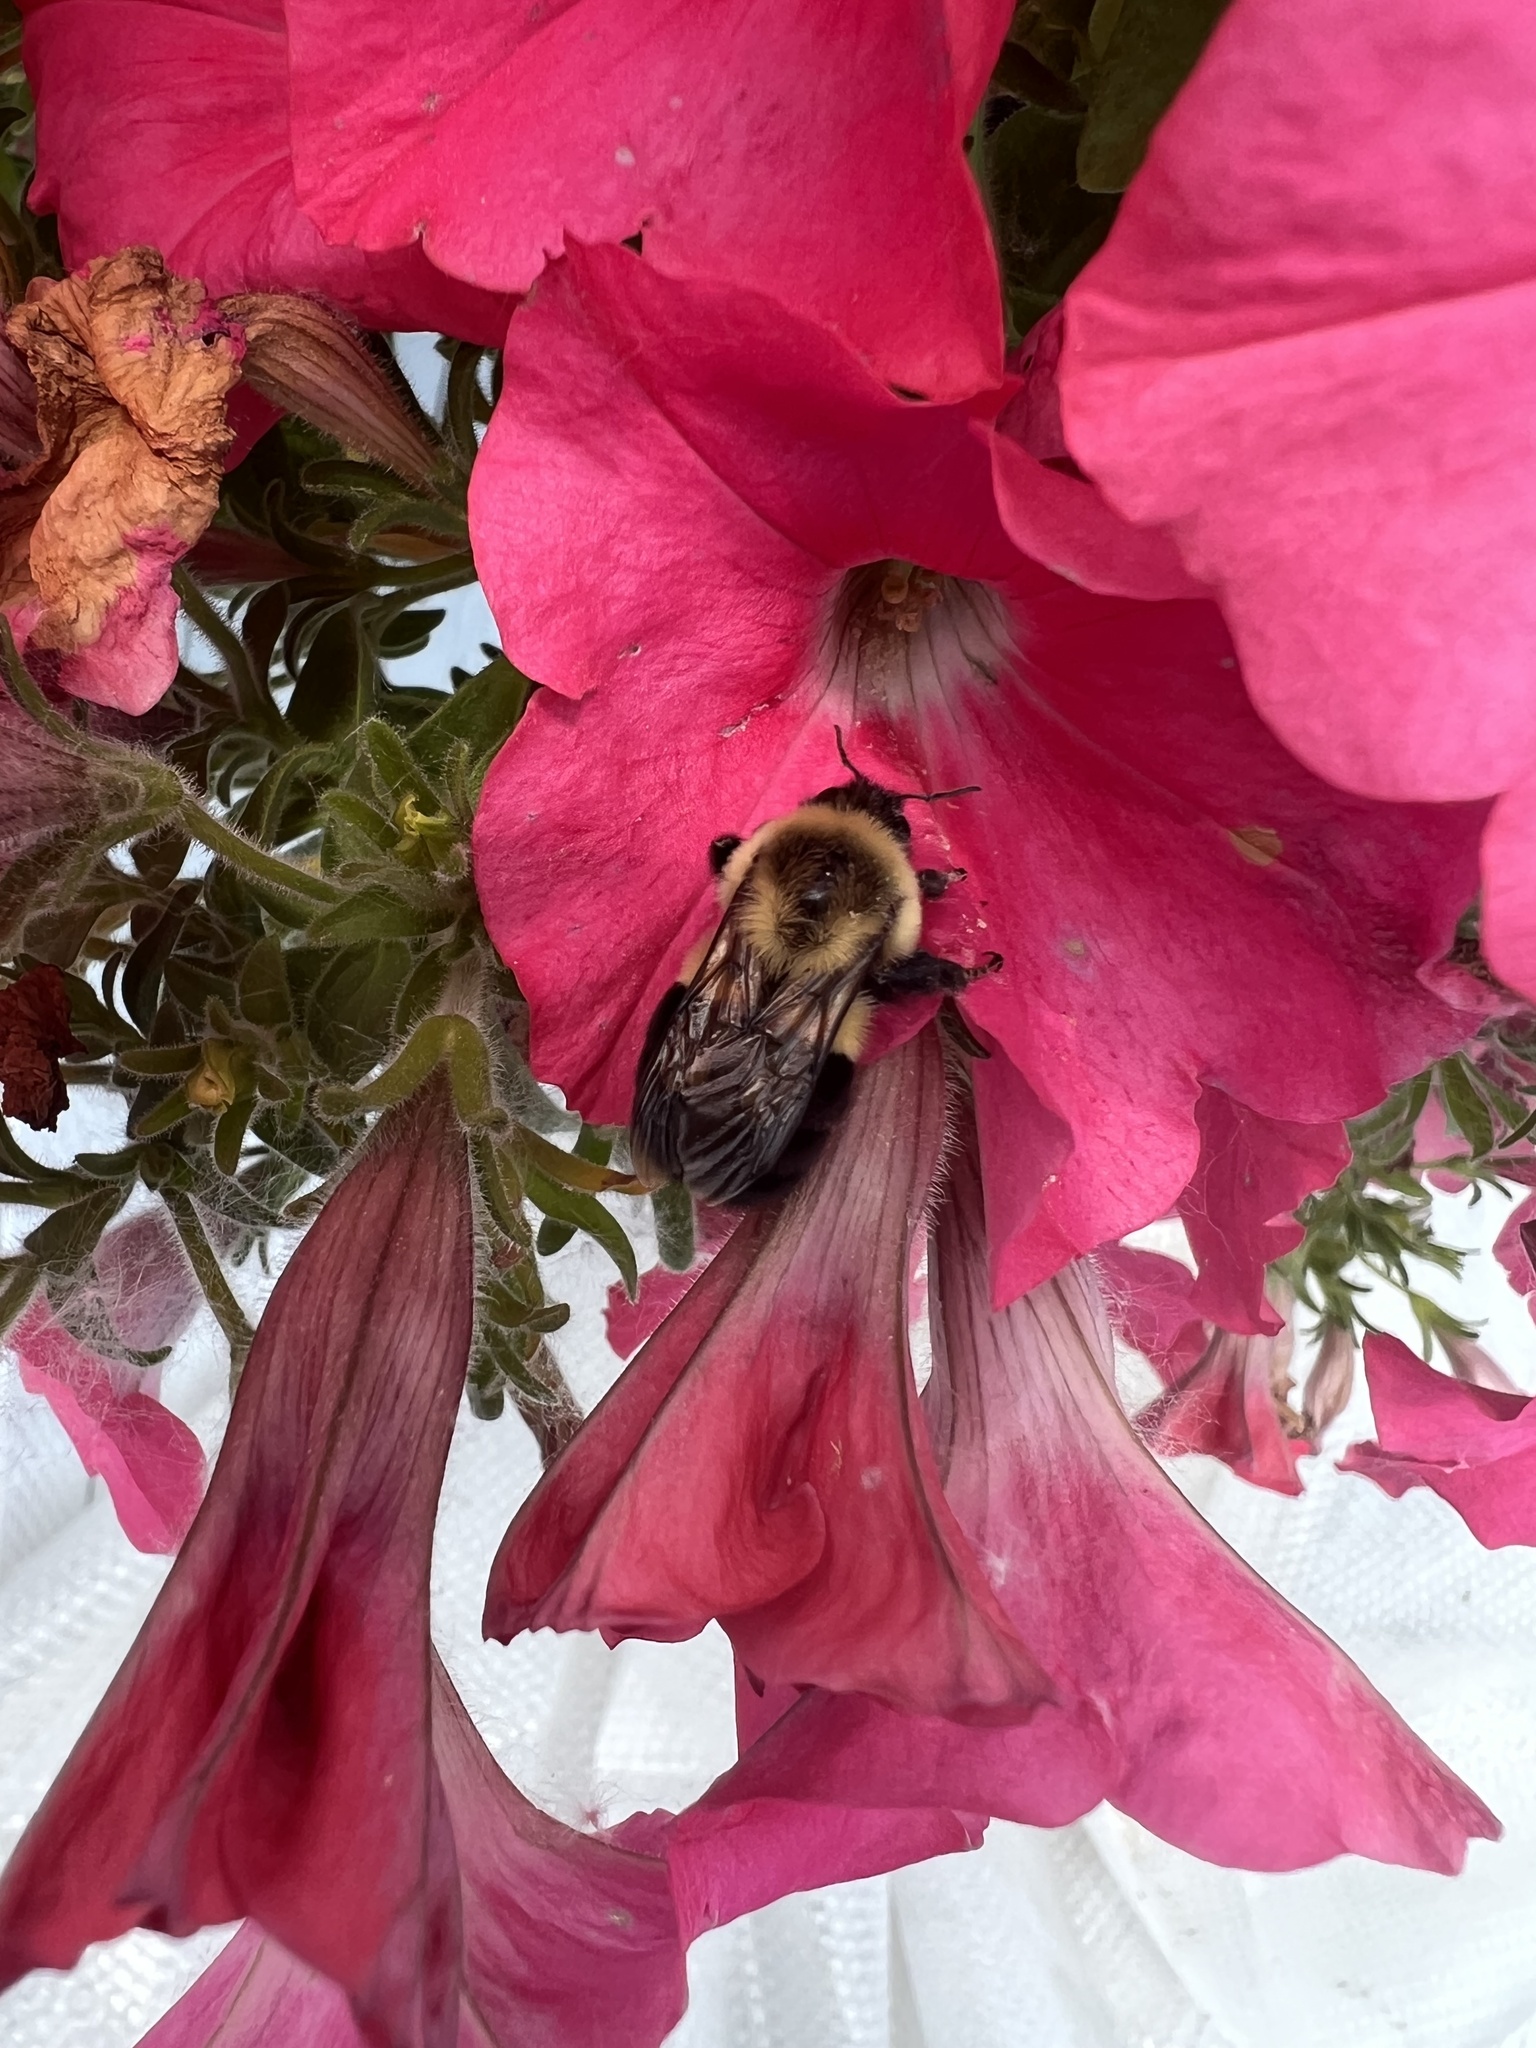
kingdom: Animalia
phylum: Arthropoda
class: Insecta
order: Hymenoptera
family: Apidae
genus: Bombus
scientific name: Bombus impatiens
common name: Common eastern bumble bee
